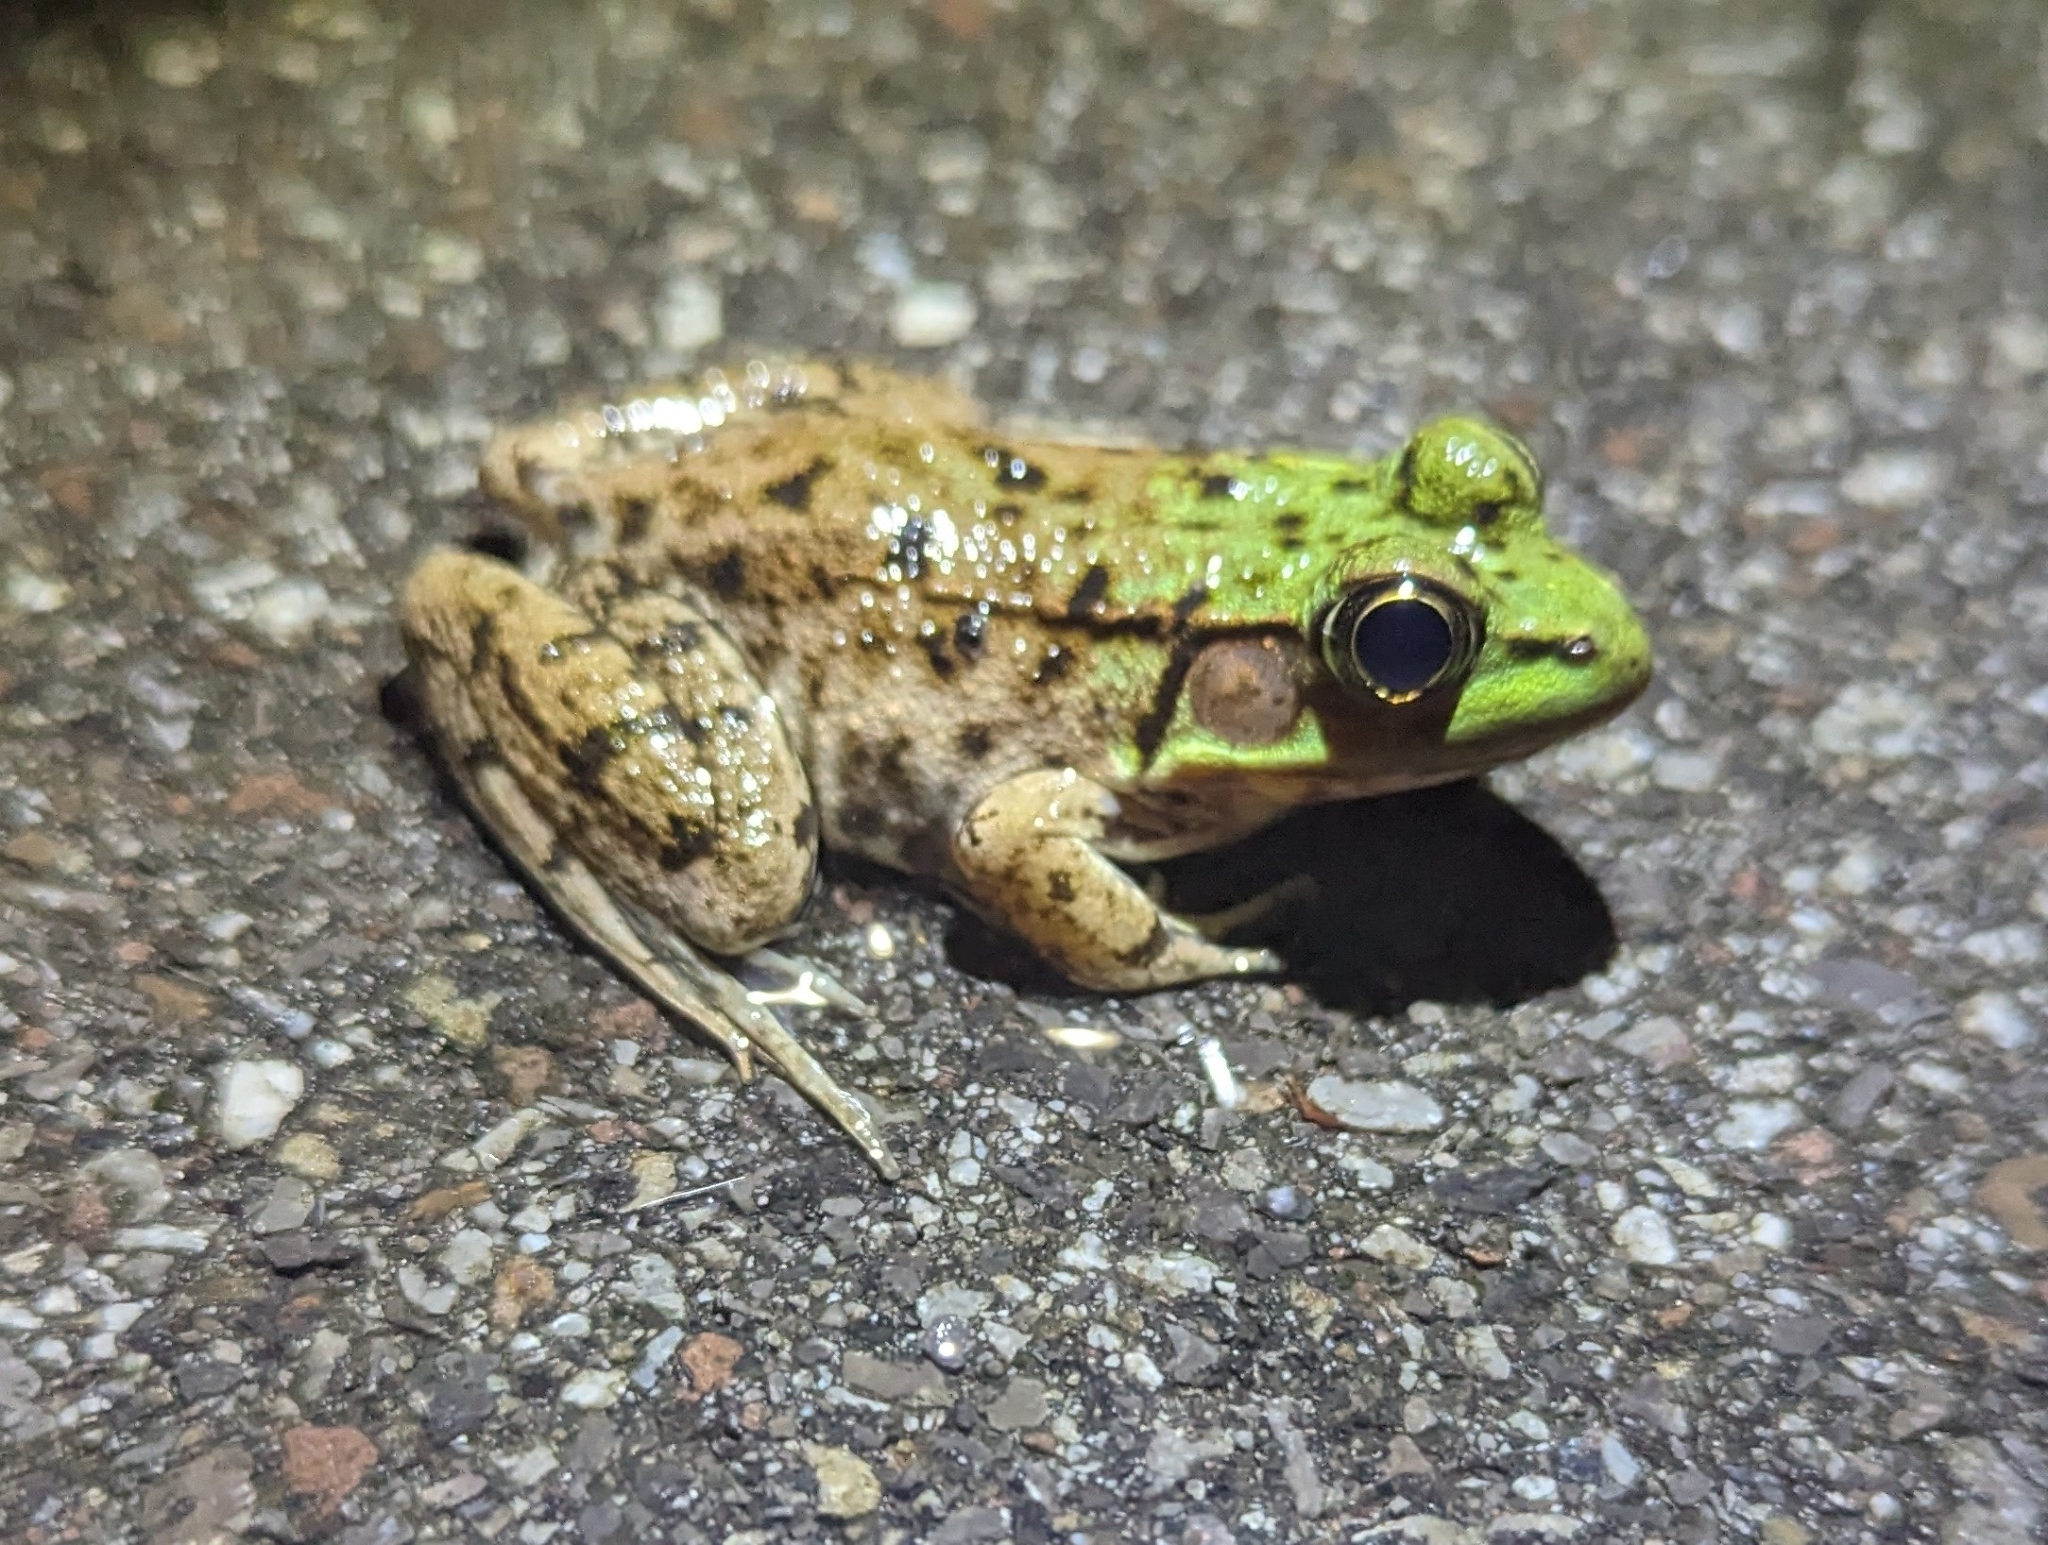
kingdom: Animalia
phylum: Chordata
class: Amphibia
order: Anura
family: Ranidae
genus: Lithobates
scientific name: Lithobates clamitans
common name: Green frog
